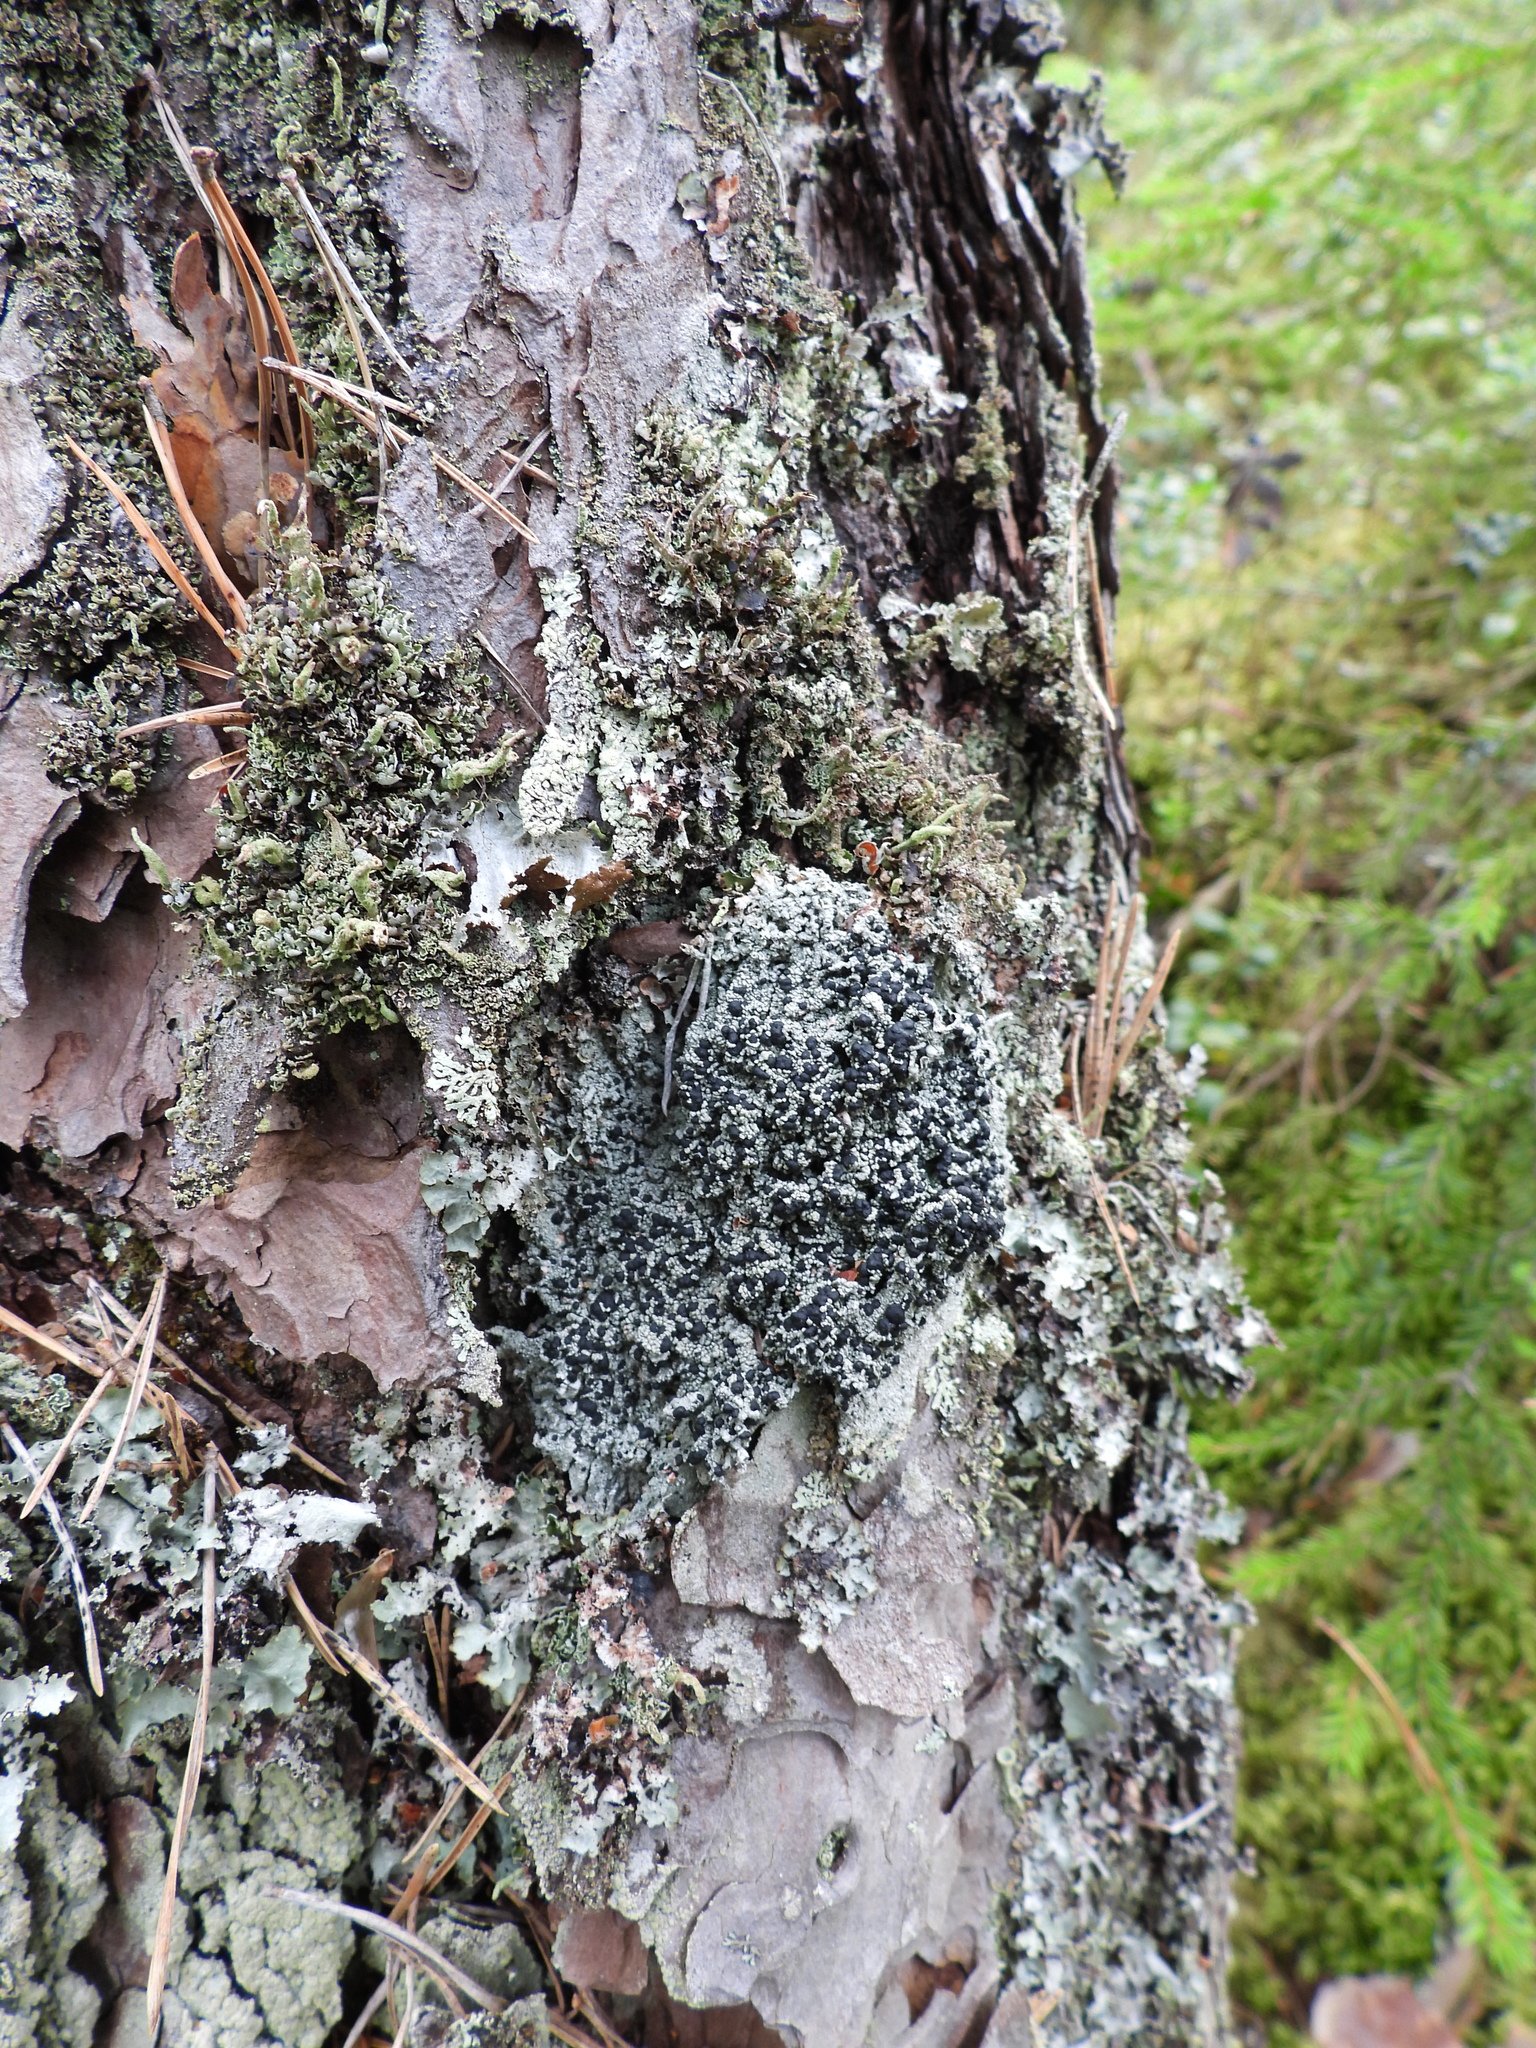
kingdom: Fungi
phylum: Ascomycota
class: Lecanoromycetes
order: Lecanorales
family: Tephromelataceae
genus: Mycoblastus
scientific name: Mycoblastus sanguinarius
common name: Bloody-heart lichen
